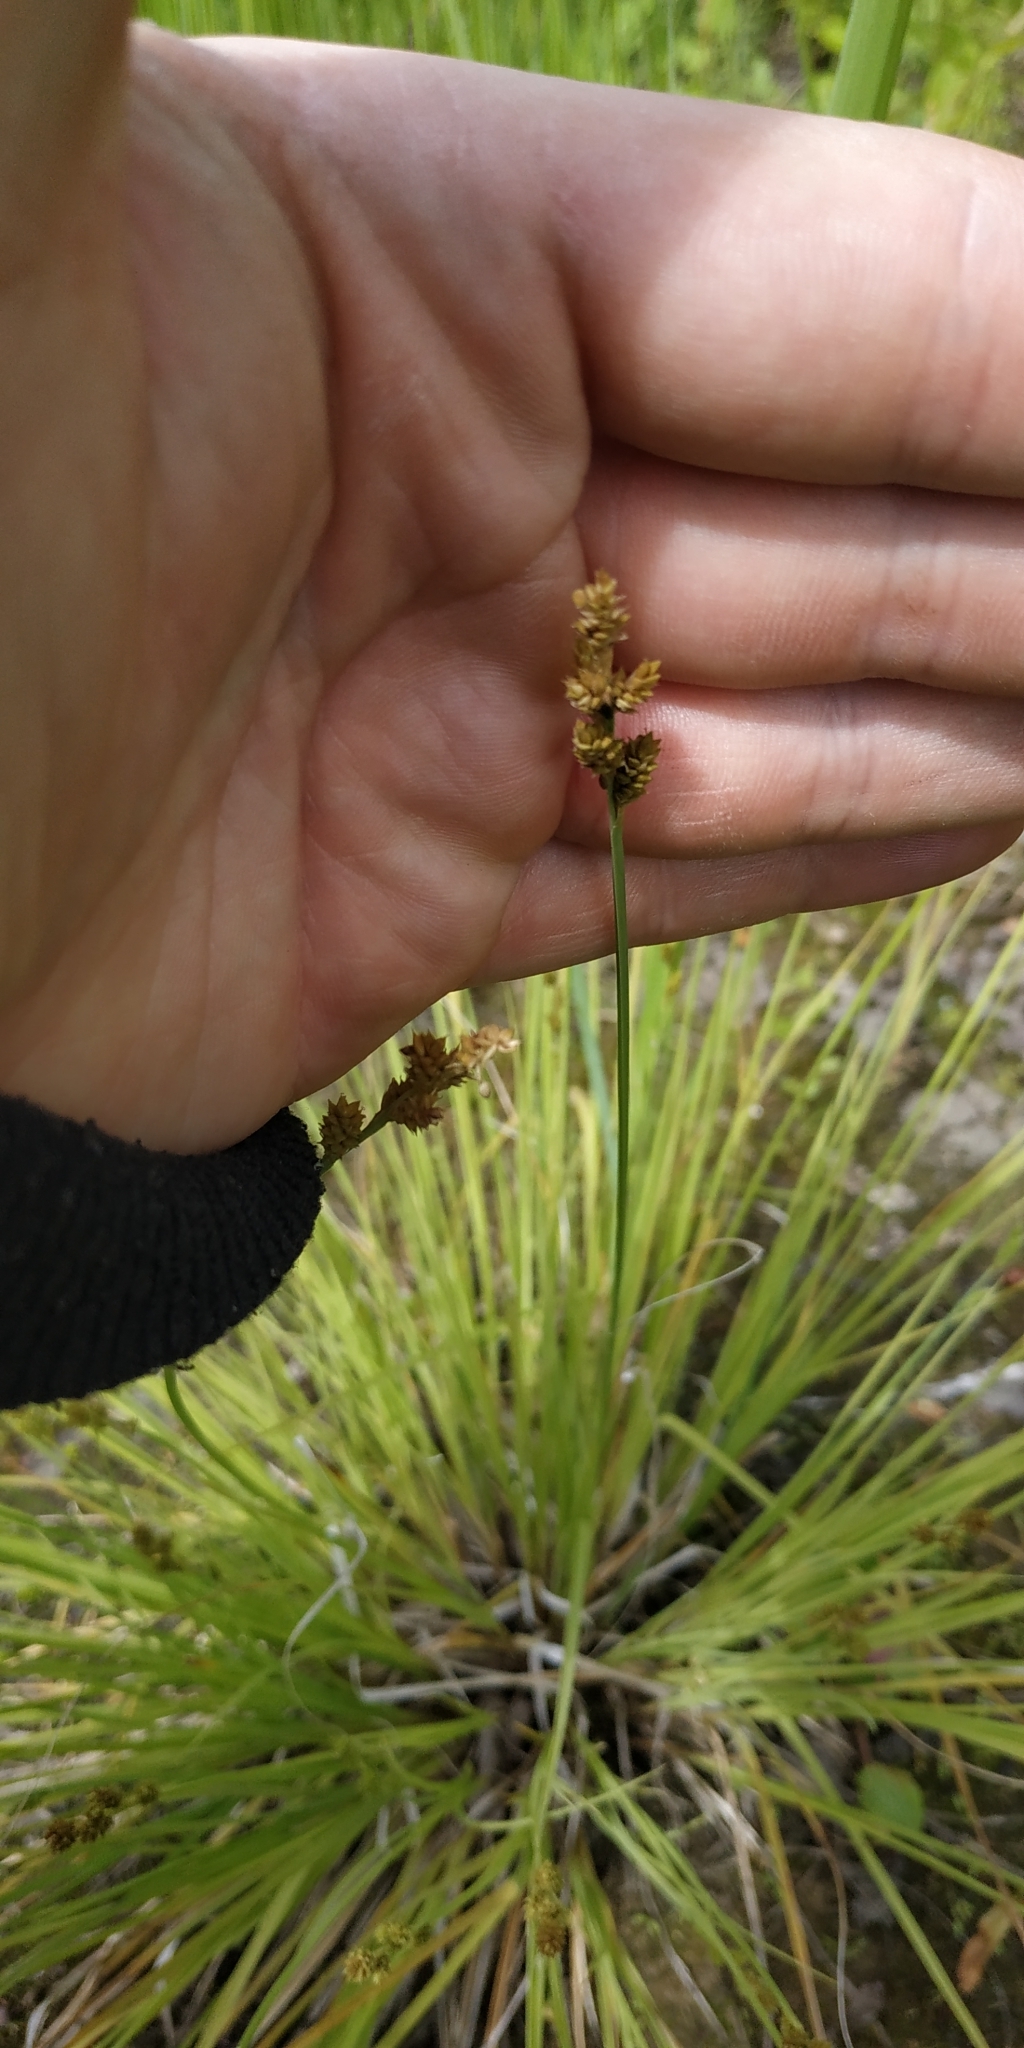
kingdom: Plantae
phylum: Tracheophyta
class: Liliopsida
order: Poales
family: Cyperaceae
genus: Carex
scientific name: Carex canescens
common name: White sedge
